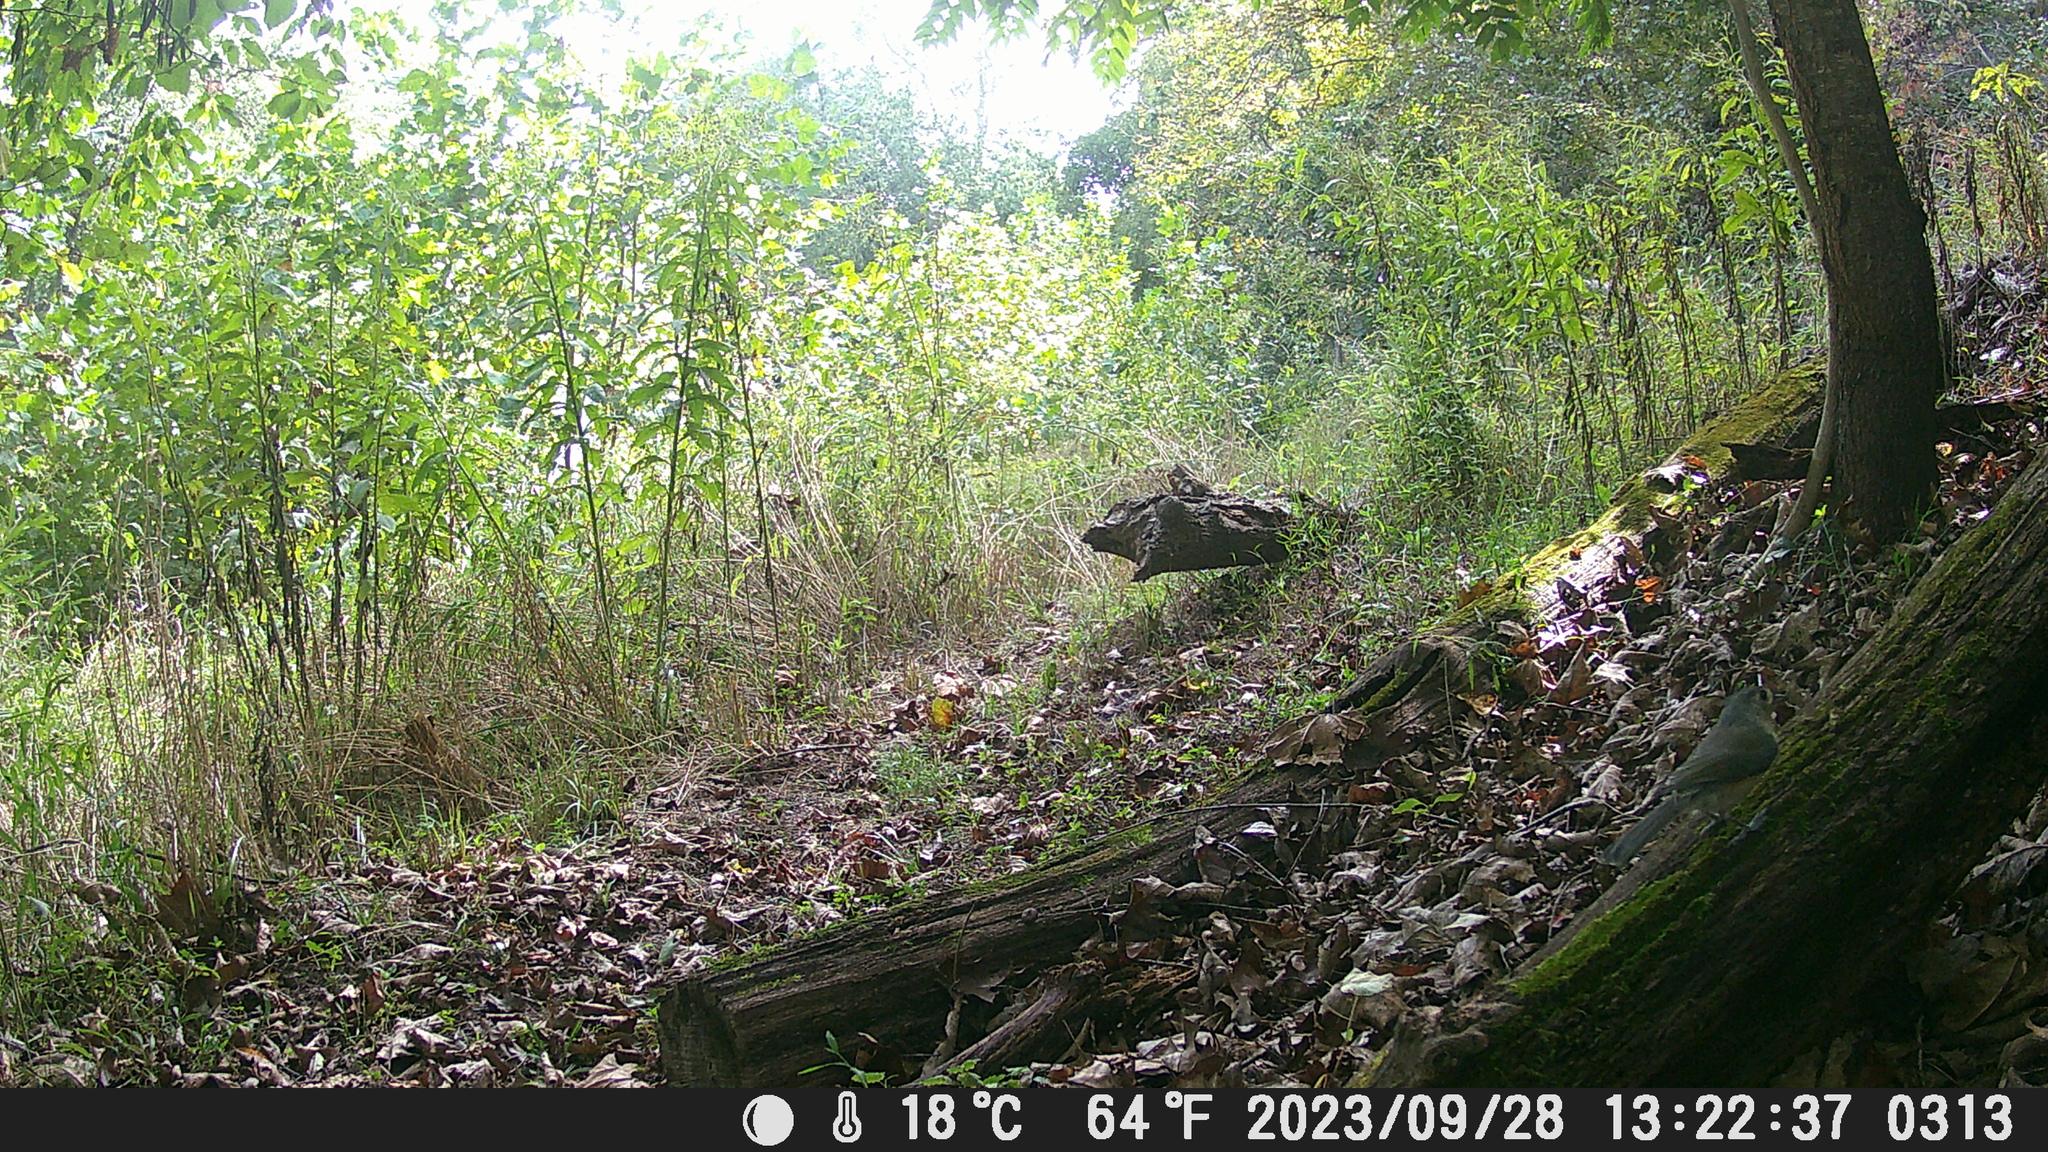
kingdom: Animalia
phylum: Chordata
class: Aves
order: Passeriformes
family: Paridae
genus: Baeolophus
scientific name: Baeolophus bicolor
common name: Tufted titmouse
